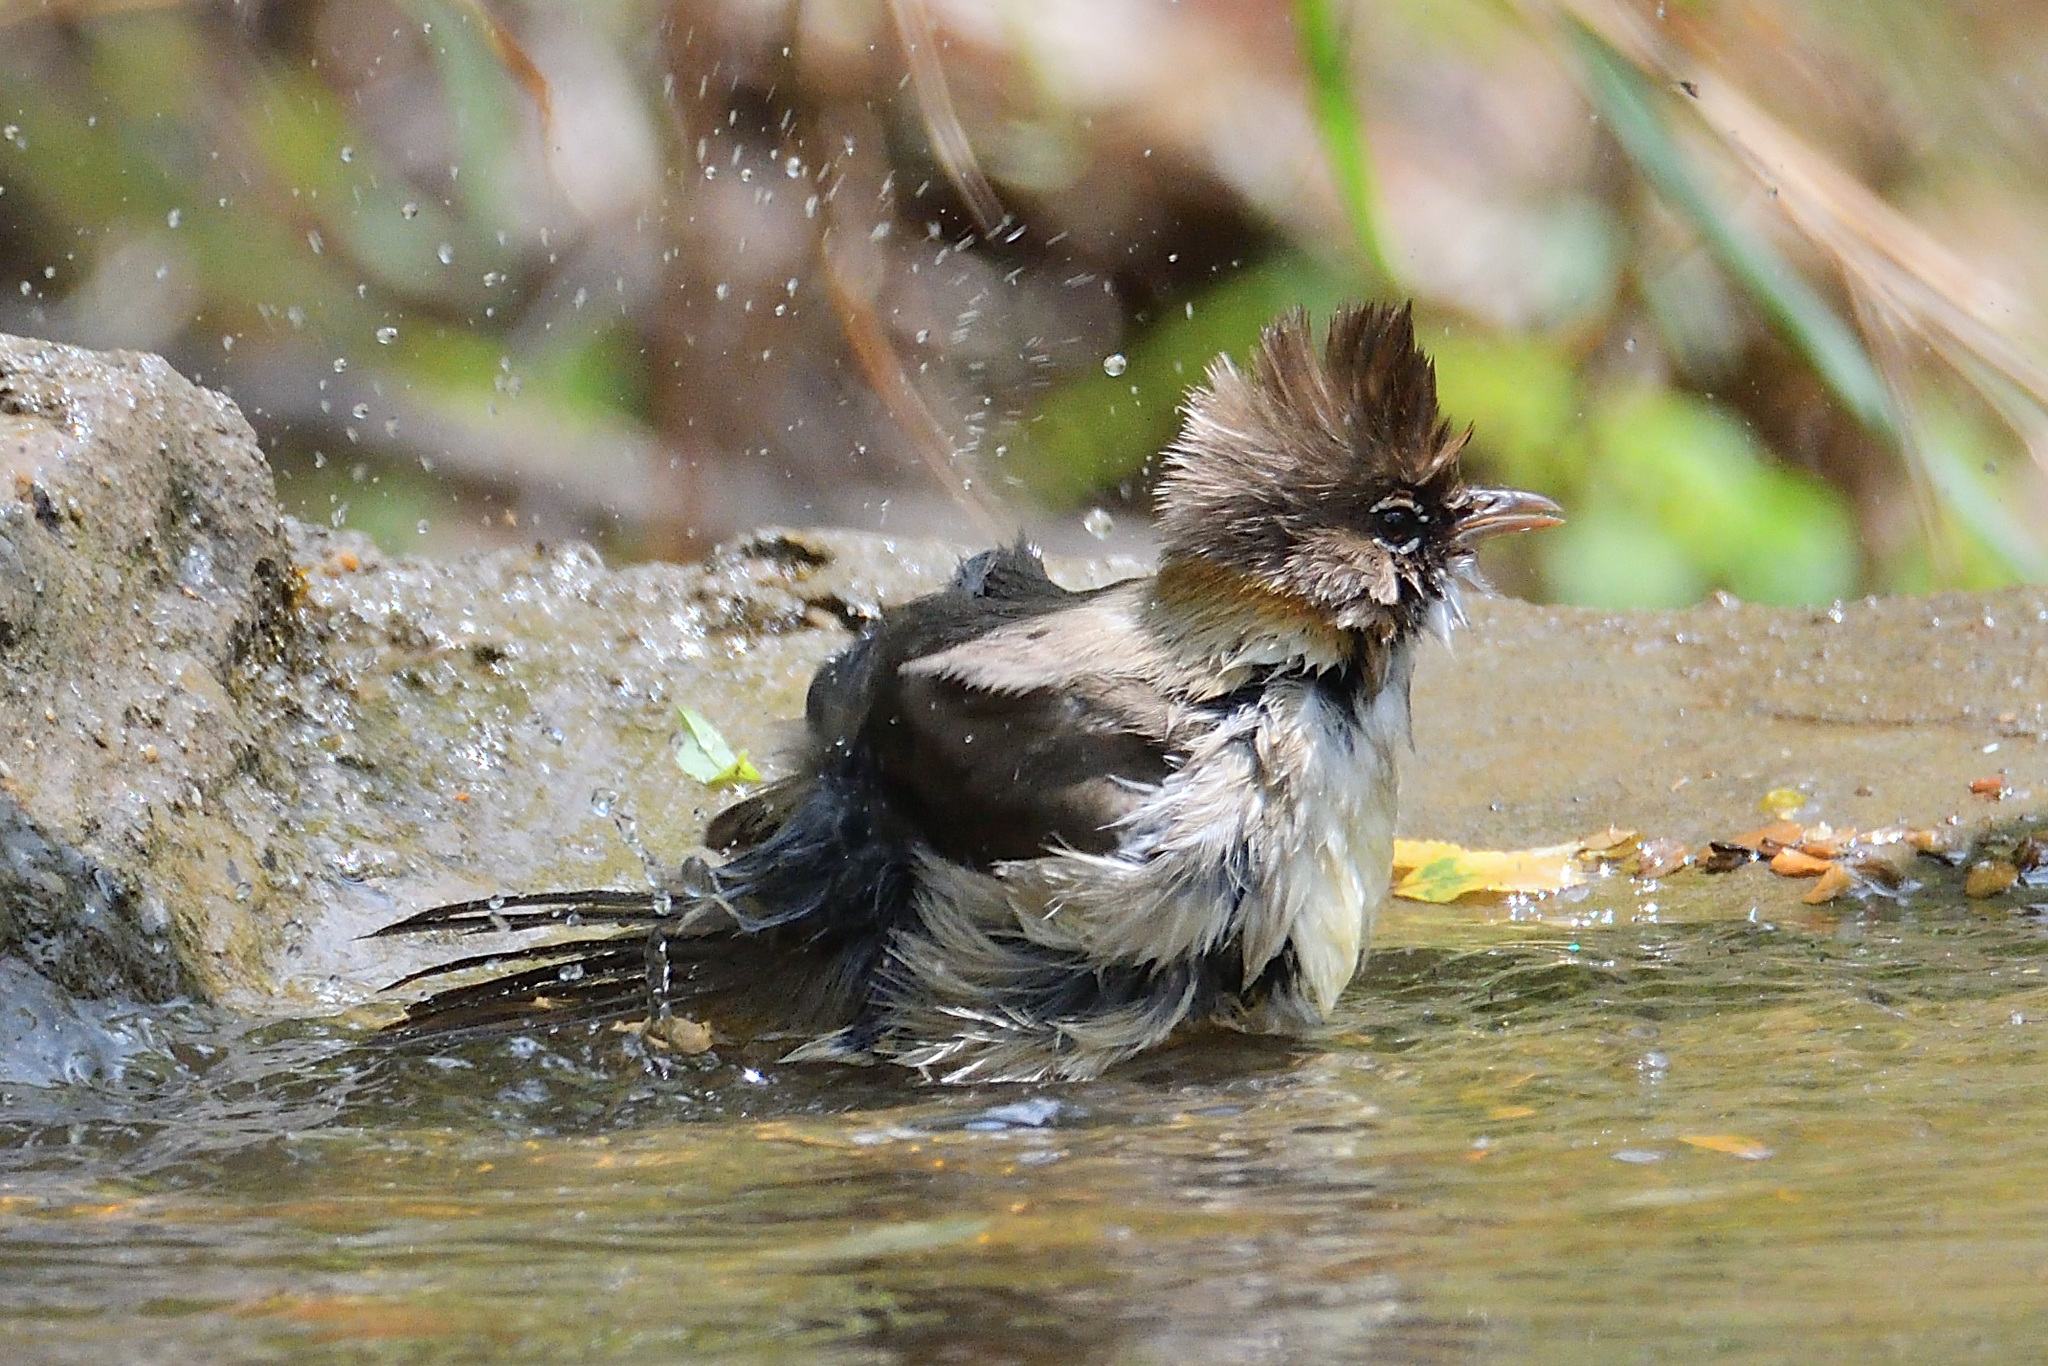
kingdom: Animalia
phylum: Chordata
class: Aves
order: Passeriformes
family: Zosteropidae
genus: Yuhina
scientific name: Yuhina flavicollis
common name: Whiskered yuhina
